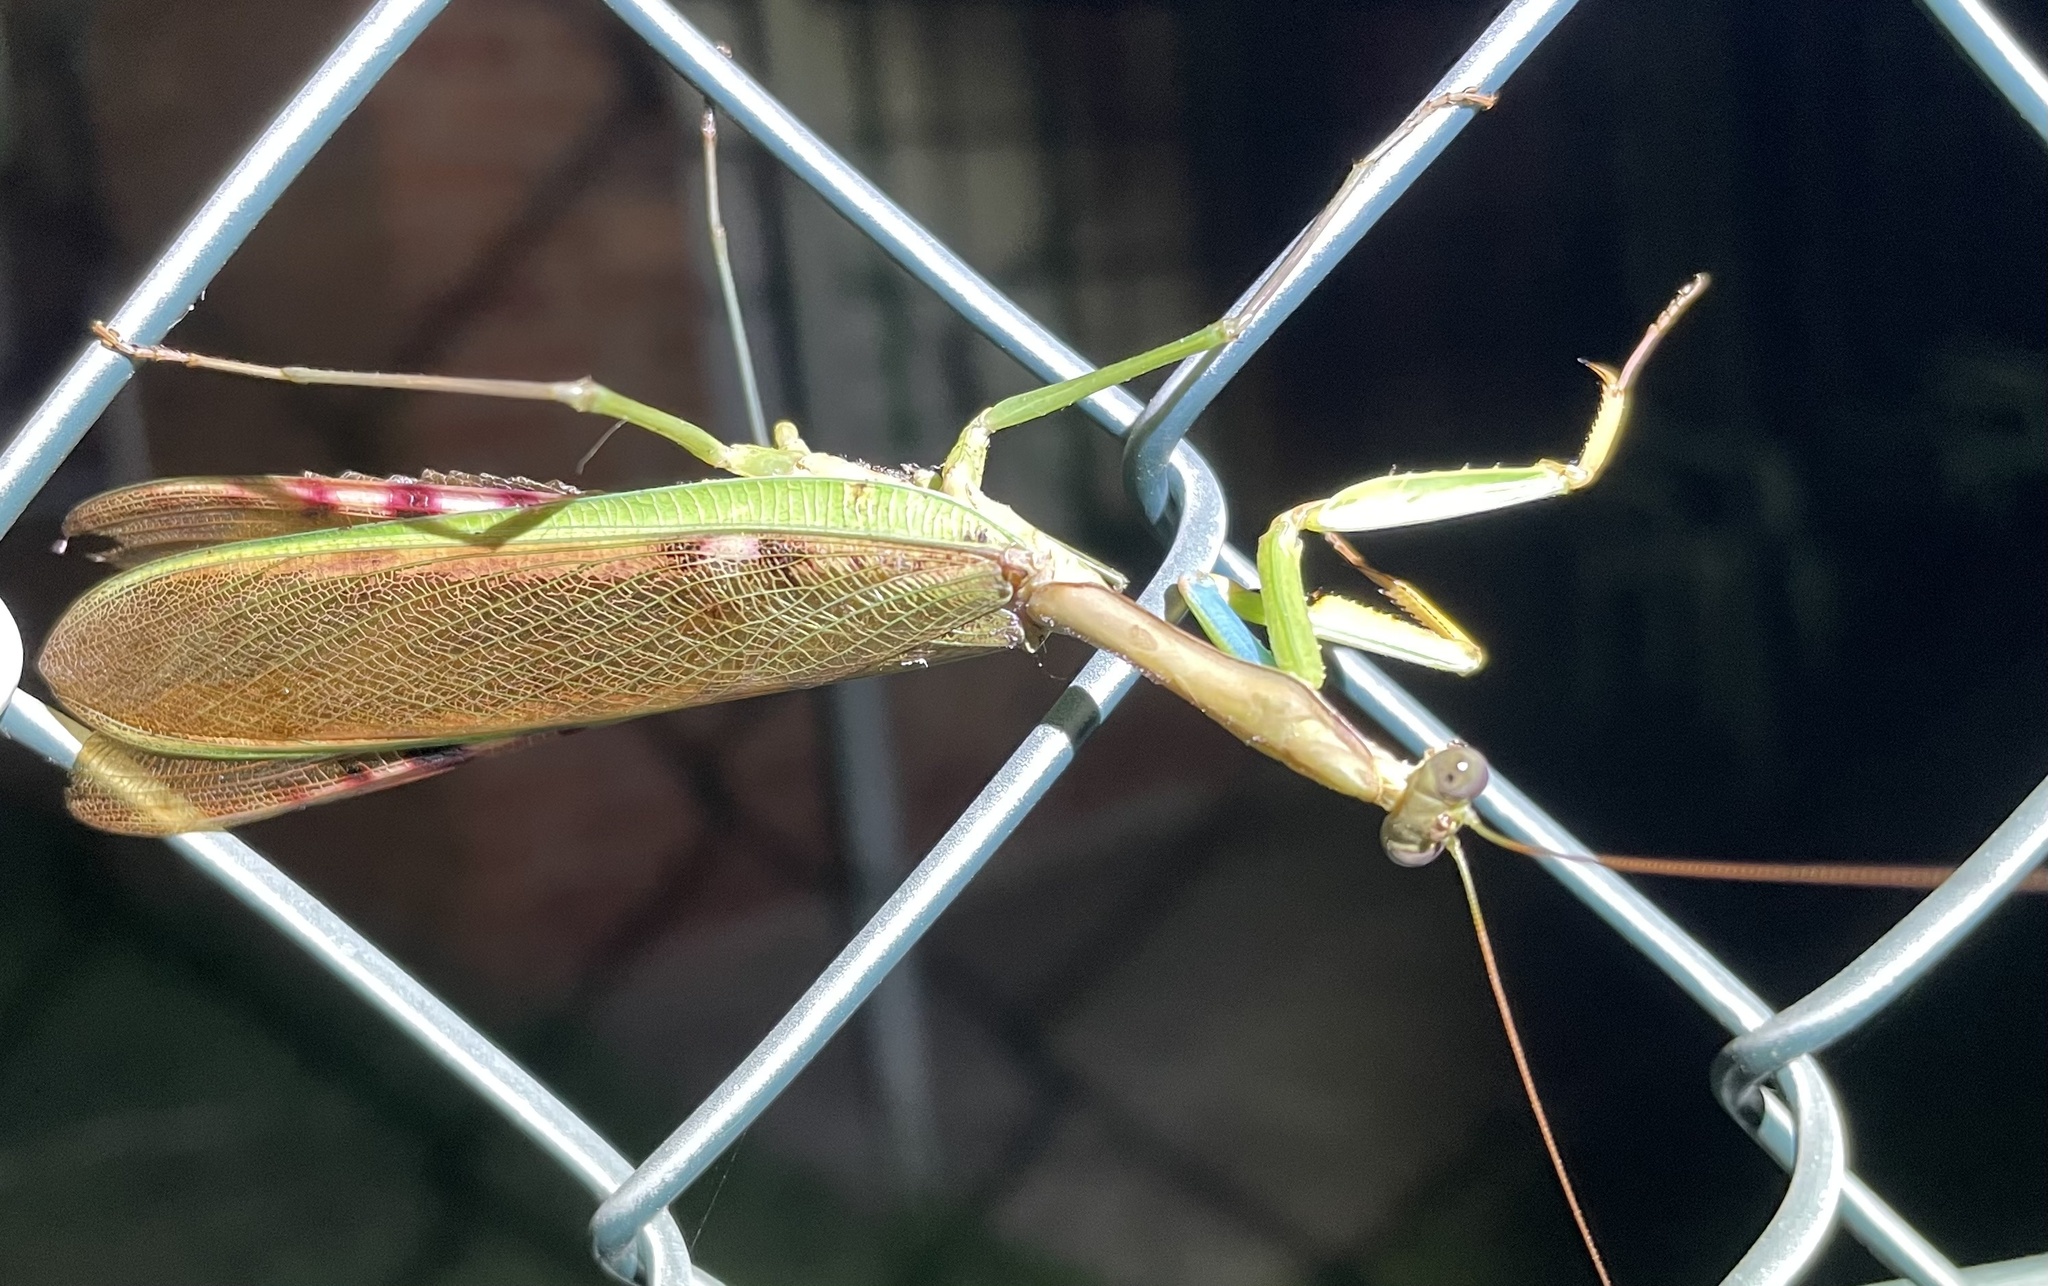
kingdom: Animalia
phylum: Arthropoda
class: Insecta
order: Mantodea
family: Mantidae
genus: Polyspilota
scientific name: Polyspilota aeruginosa
